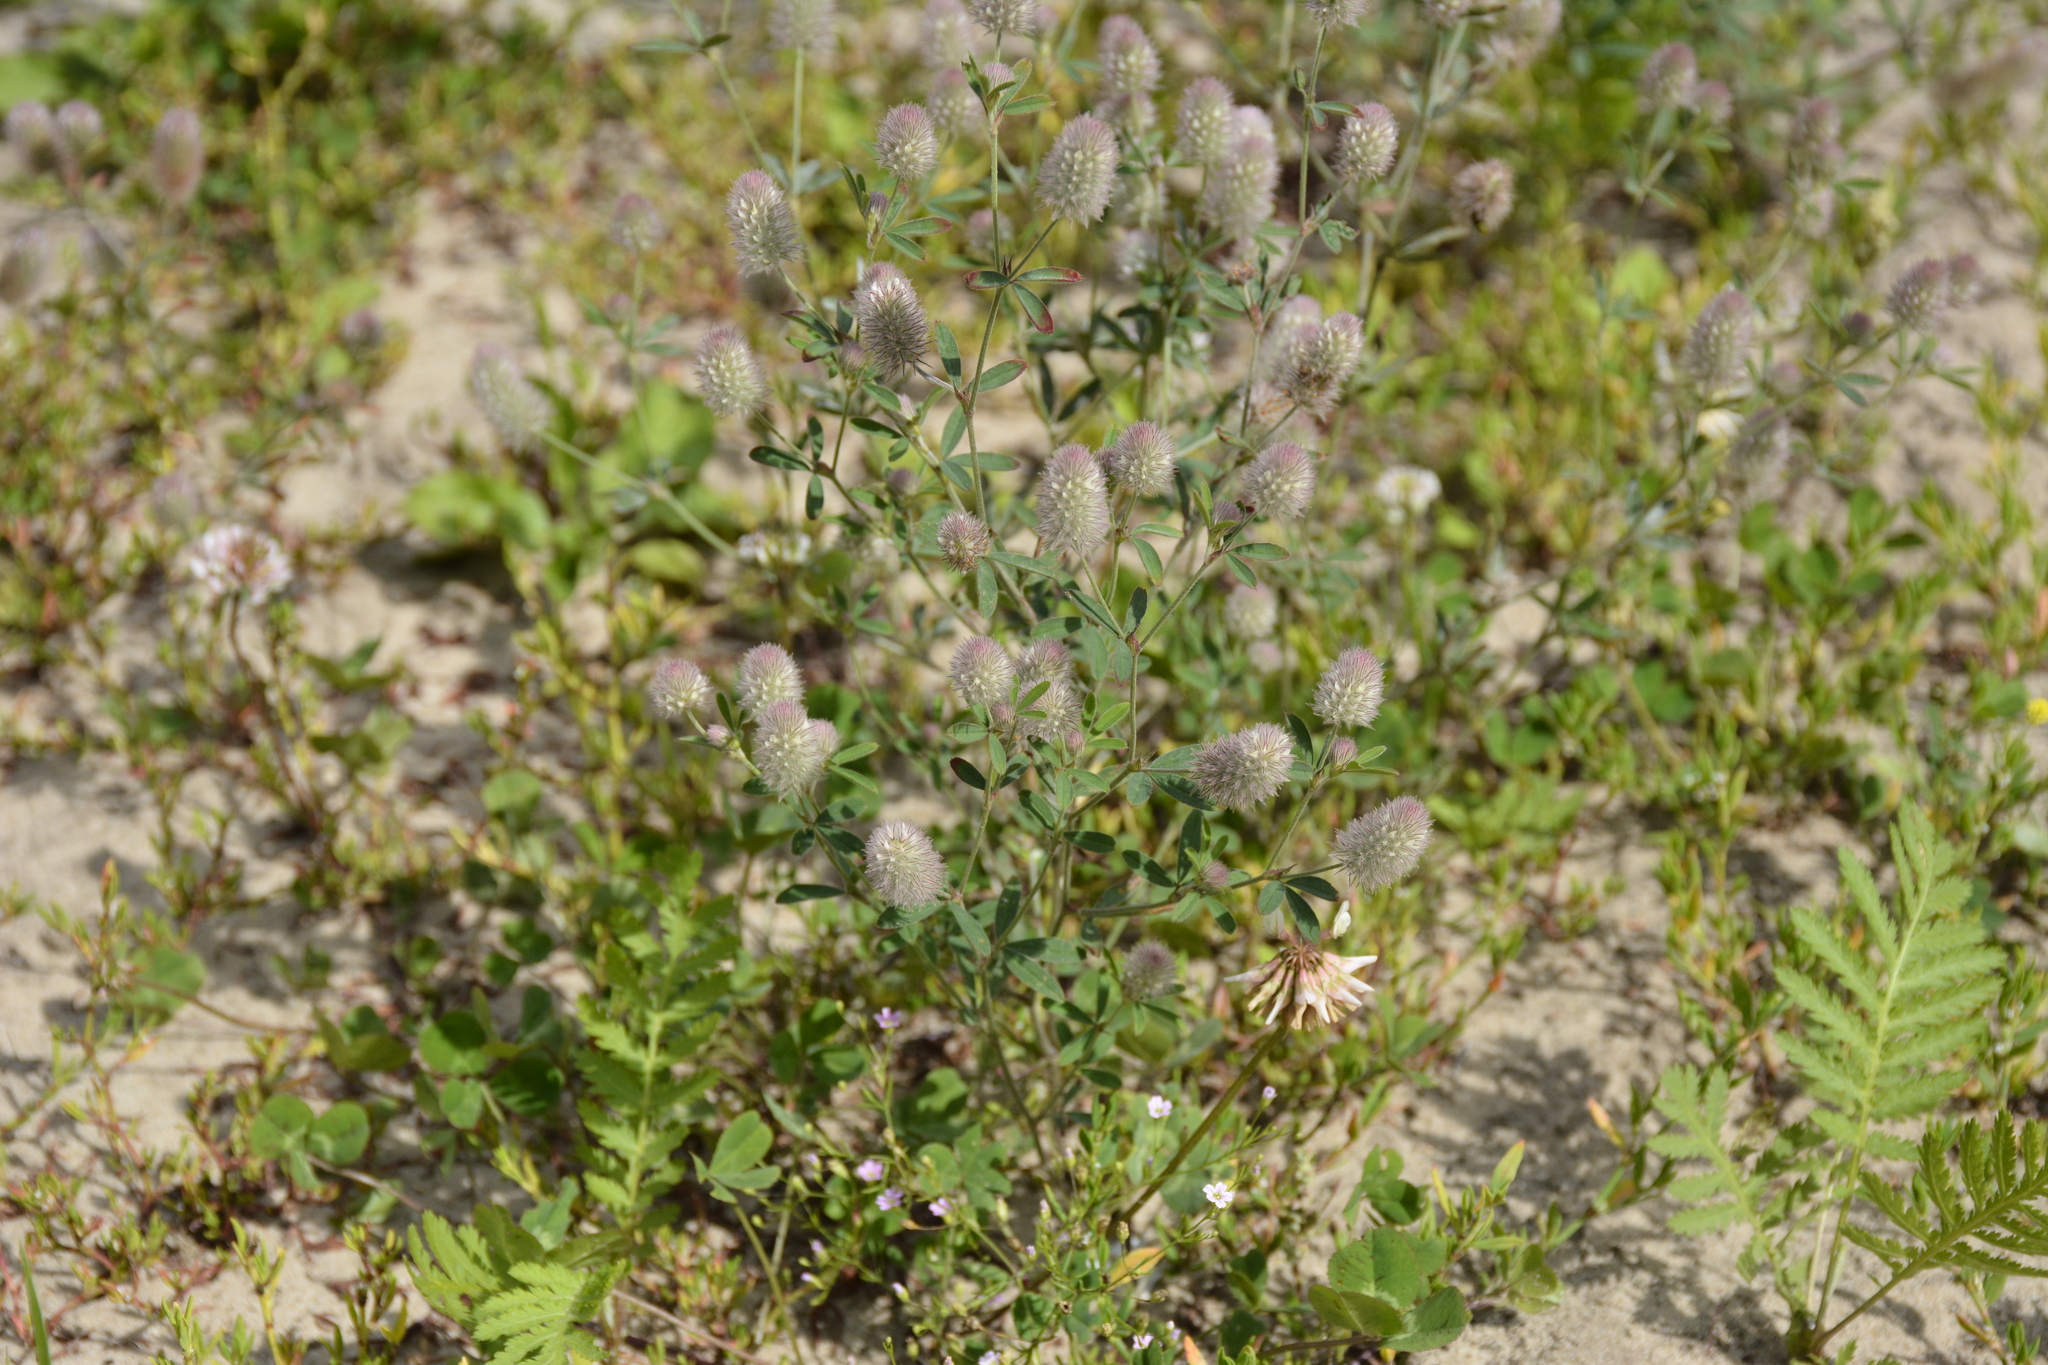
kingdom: Plantae
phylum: Tracheophyta
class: Magnoliopsida
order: Fabales
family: Fabaceae
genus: Trifolium
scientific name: Trifolium arvense
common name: Hare's-foot clover
